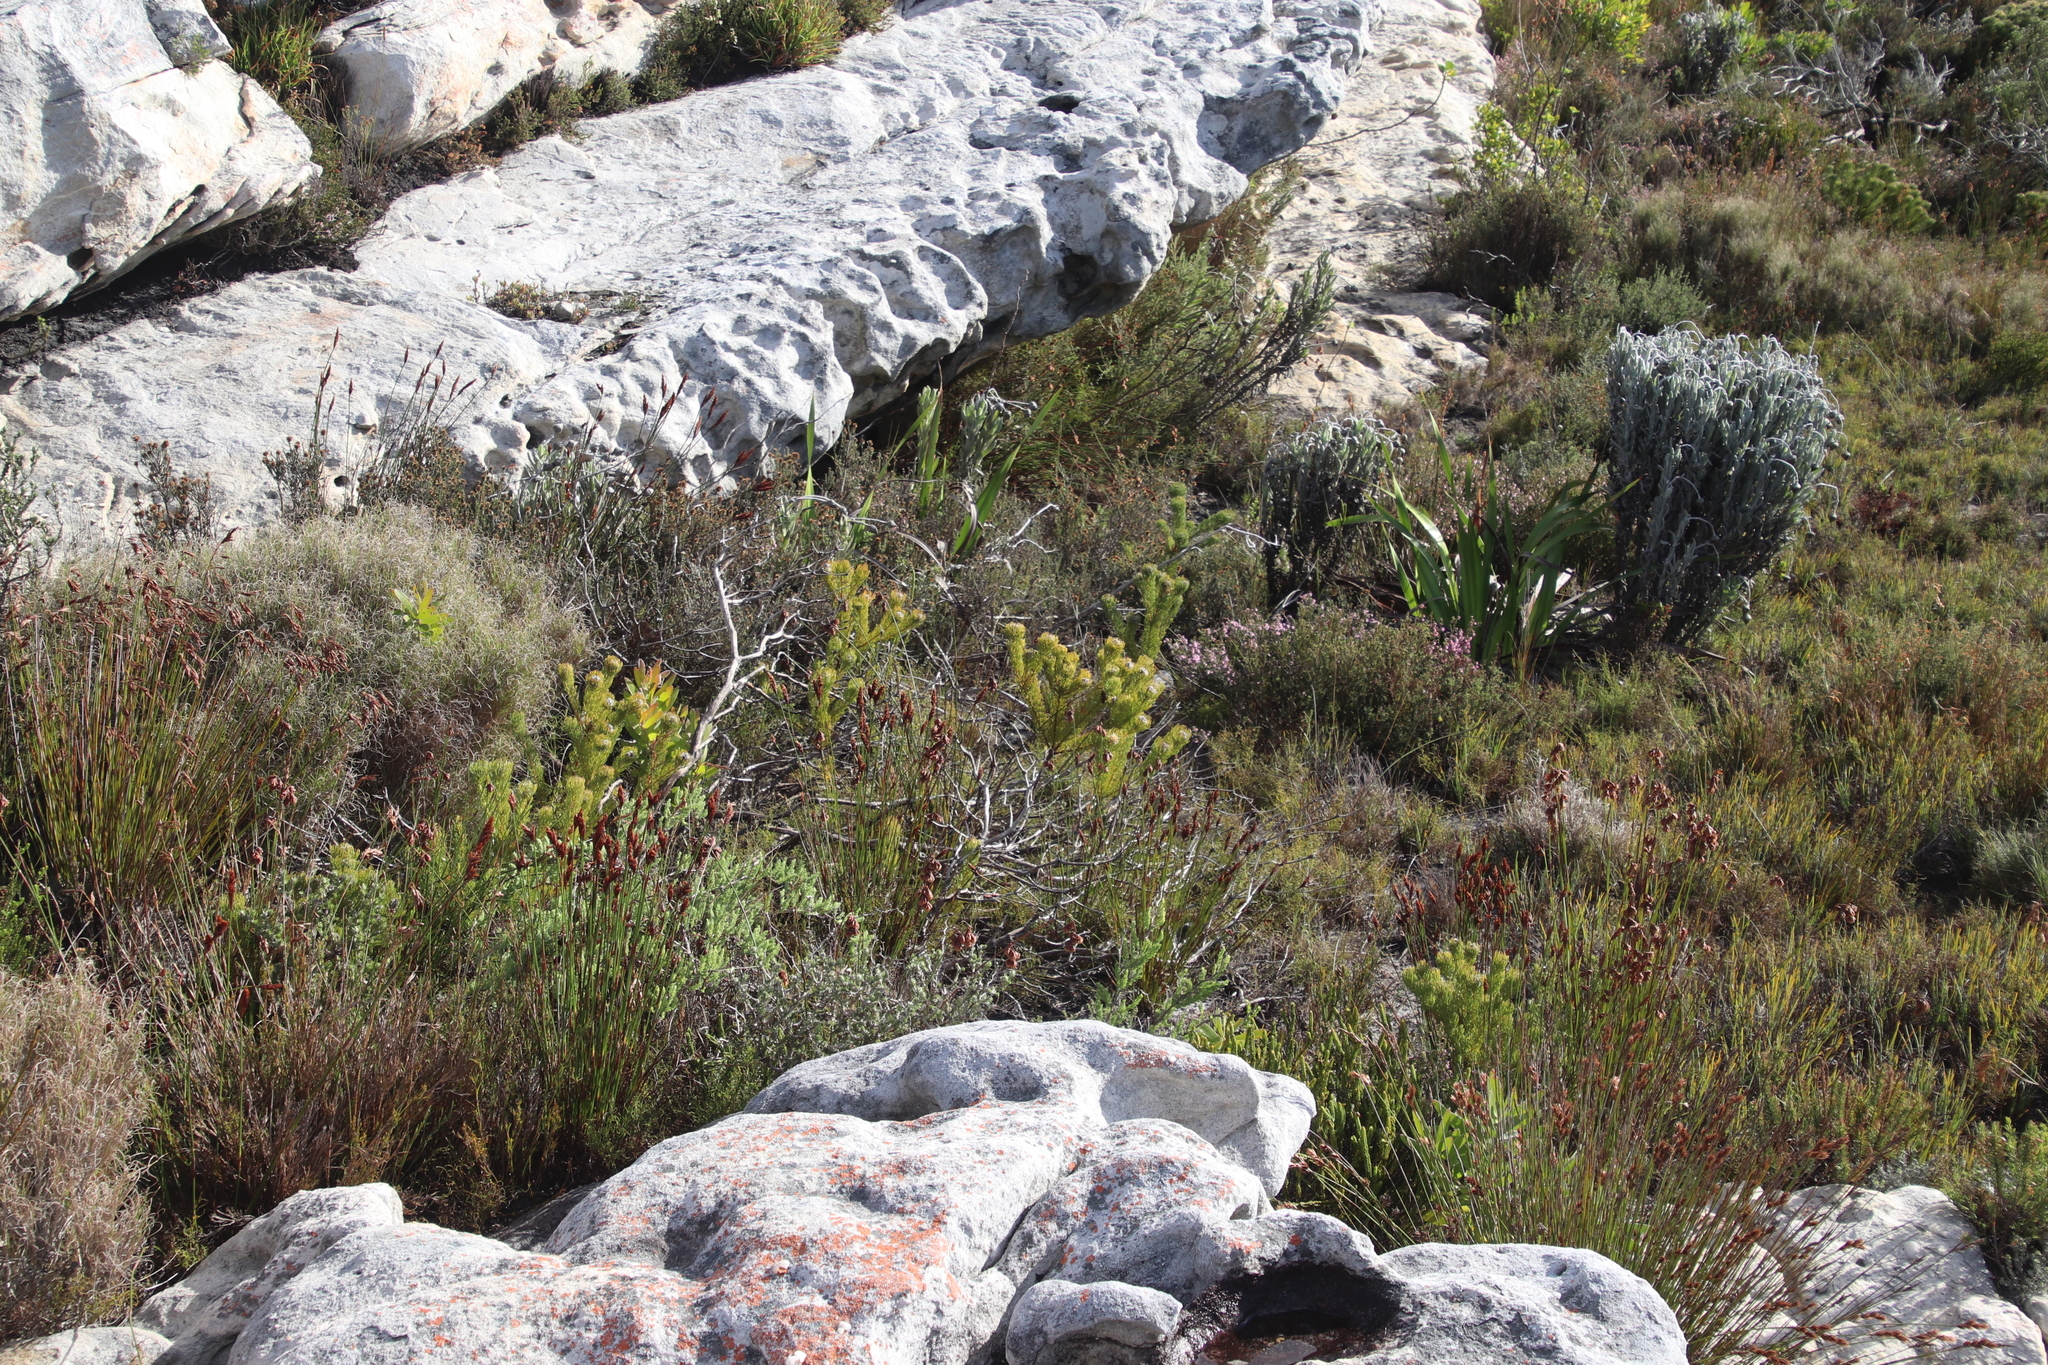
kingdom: Plantae
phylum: Tracheophyta
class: Magnoliopsida
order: Proteales
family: Proteaceae
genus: Serruria
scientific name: Serruria villosa
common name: Golden spiderhead
